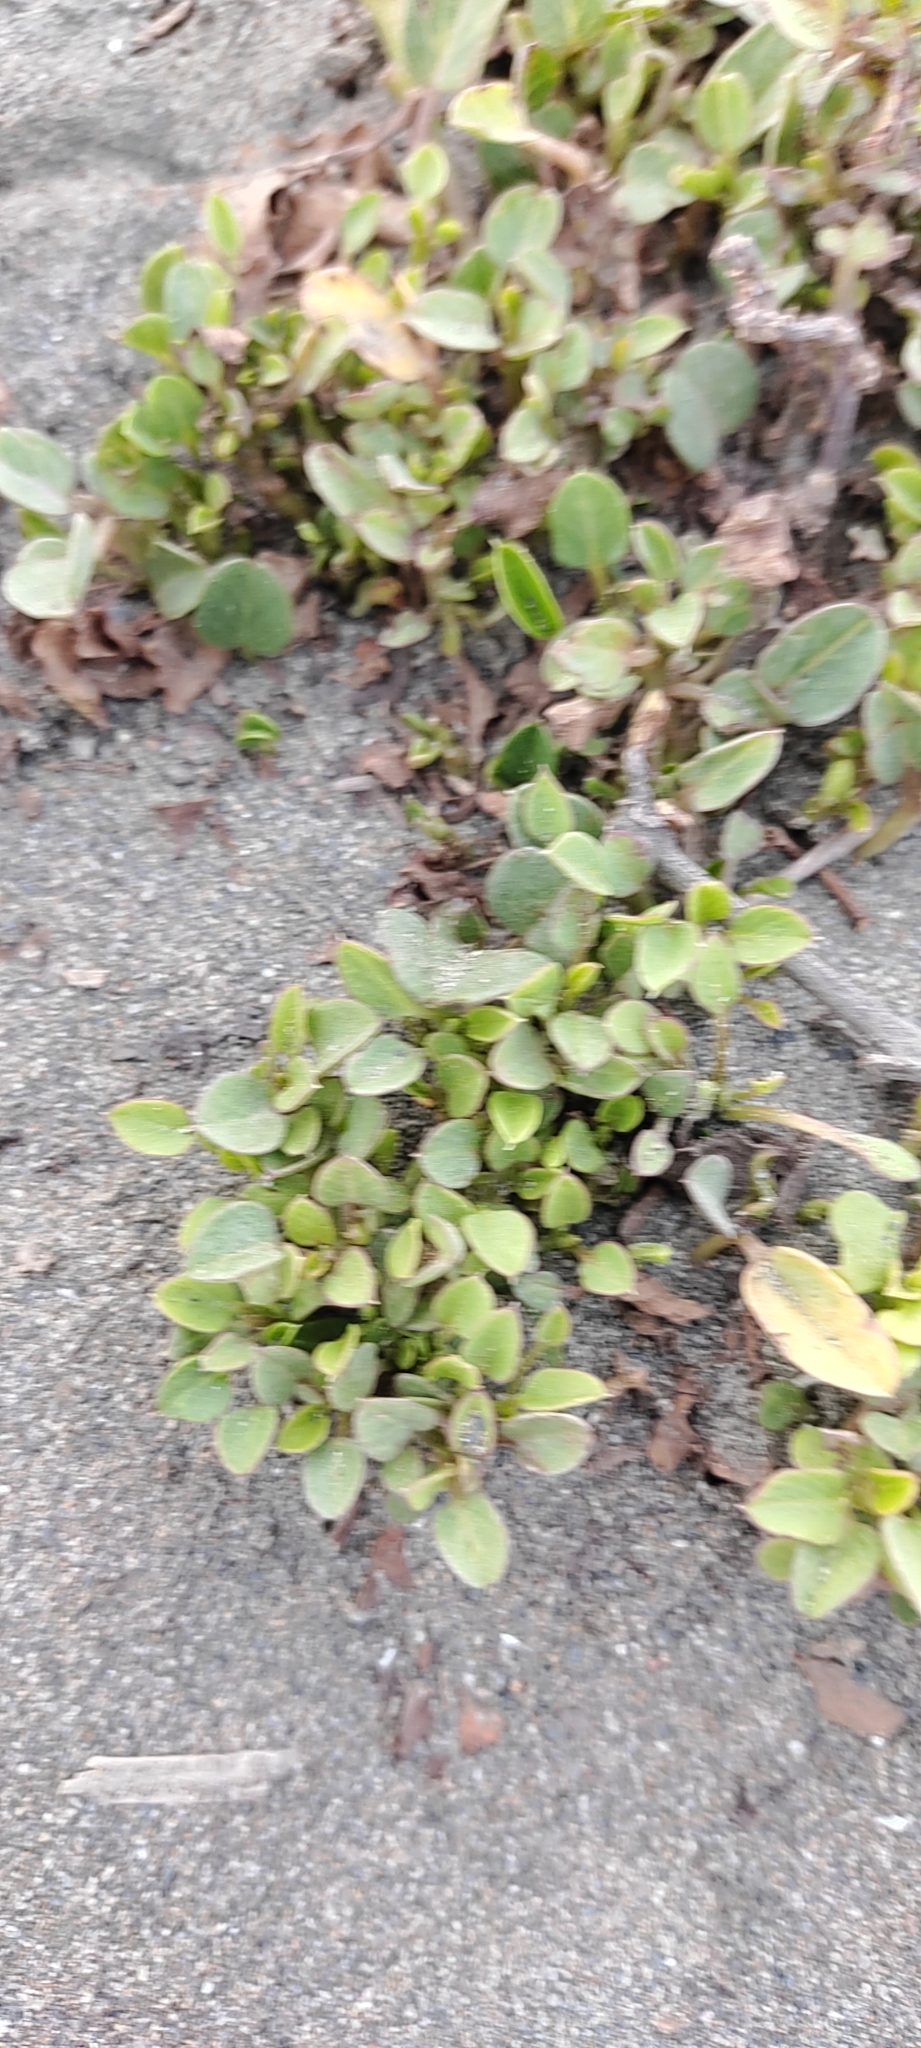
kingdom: Plantae
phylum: Tracheophyta
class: Magnoliopsida
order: Solanales
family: Convolvulaceae
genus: Ipomoea
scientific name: Ipomoea pes-caprae
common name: Beach morning glory
